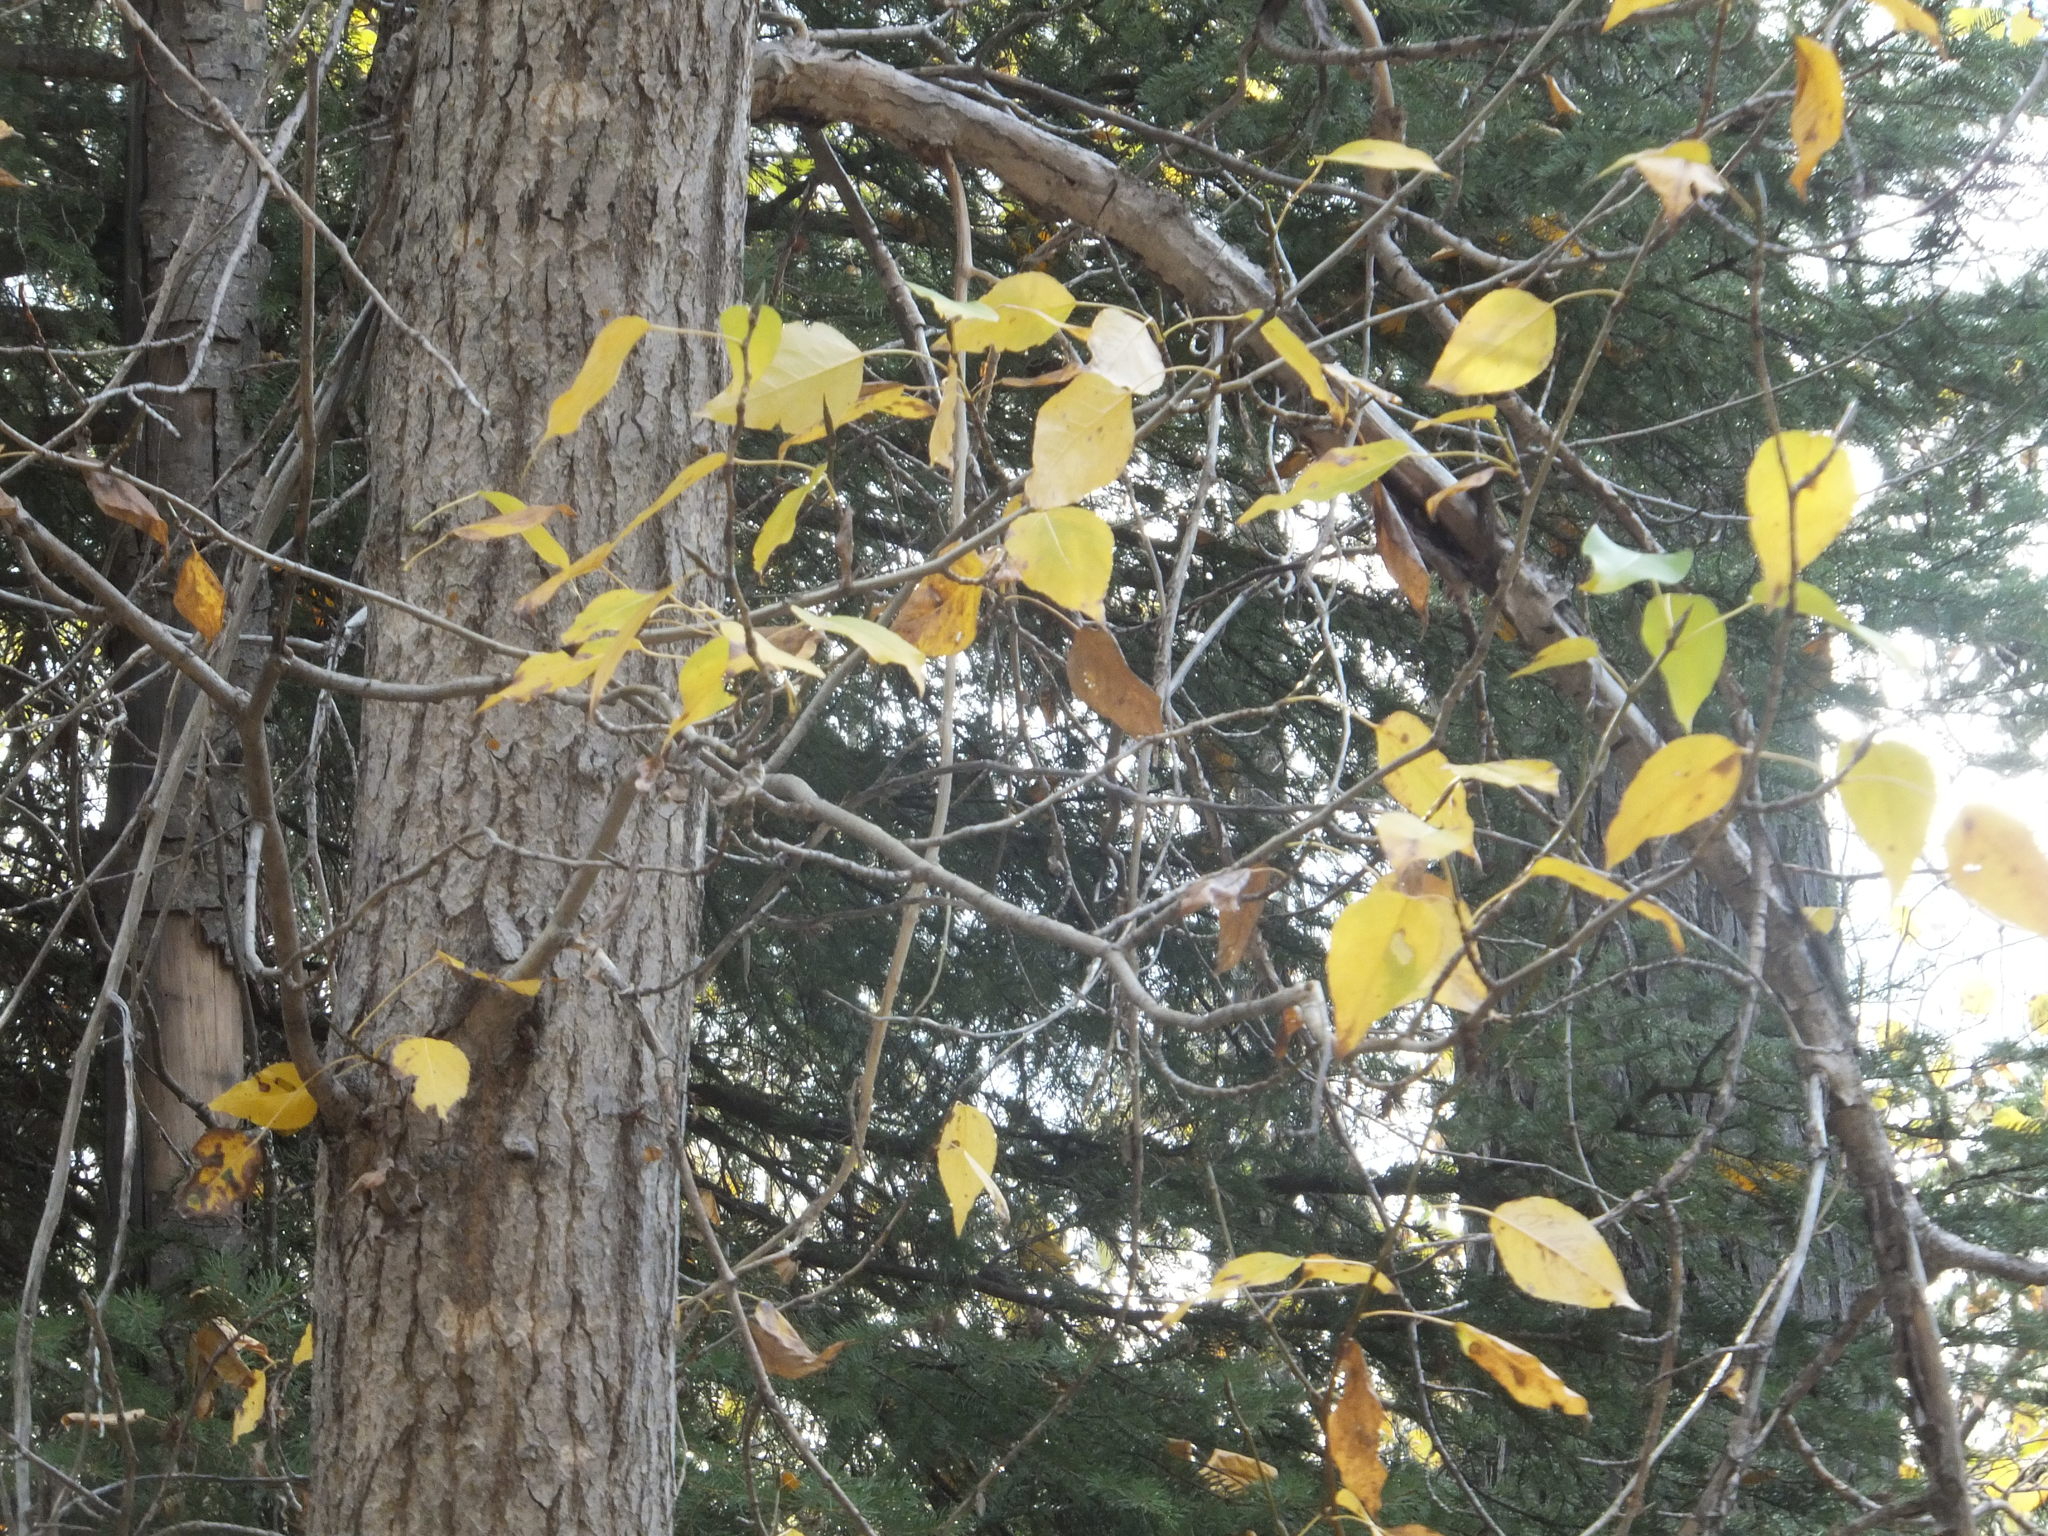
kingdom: Plantae
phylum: Tracheophyta
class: Magnoliopsida
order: Malpighiales
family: Salicaceae
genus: Populus
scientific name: Populus trichocarpa
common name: Black cottonwood
